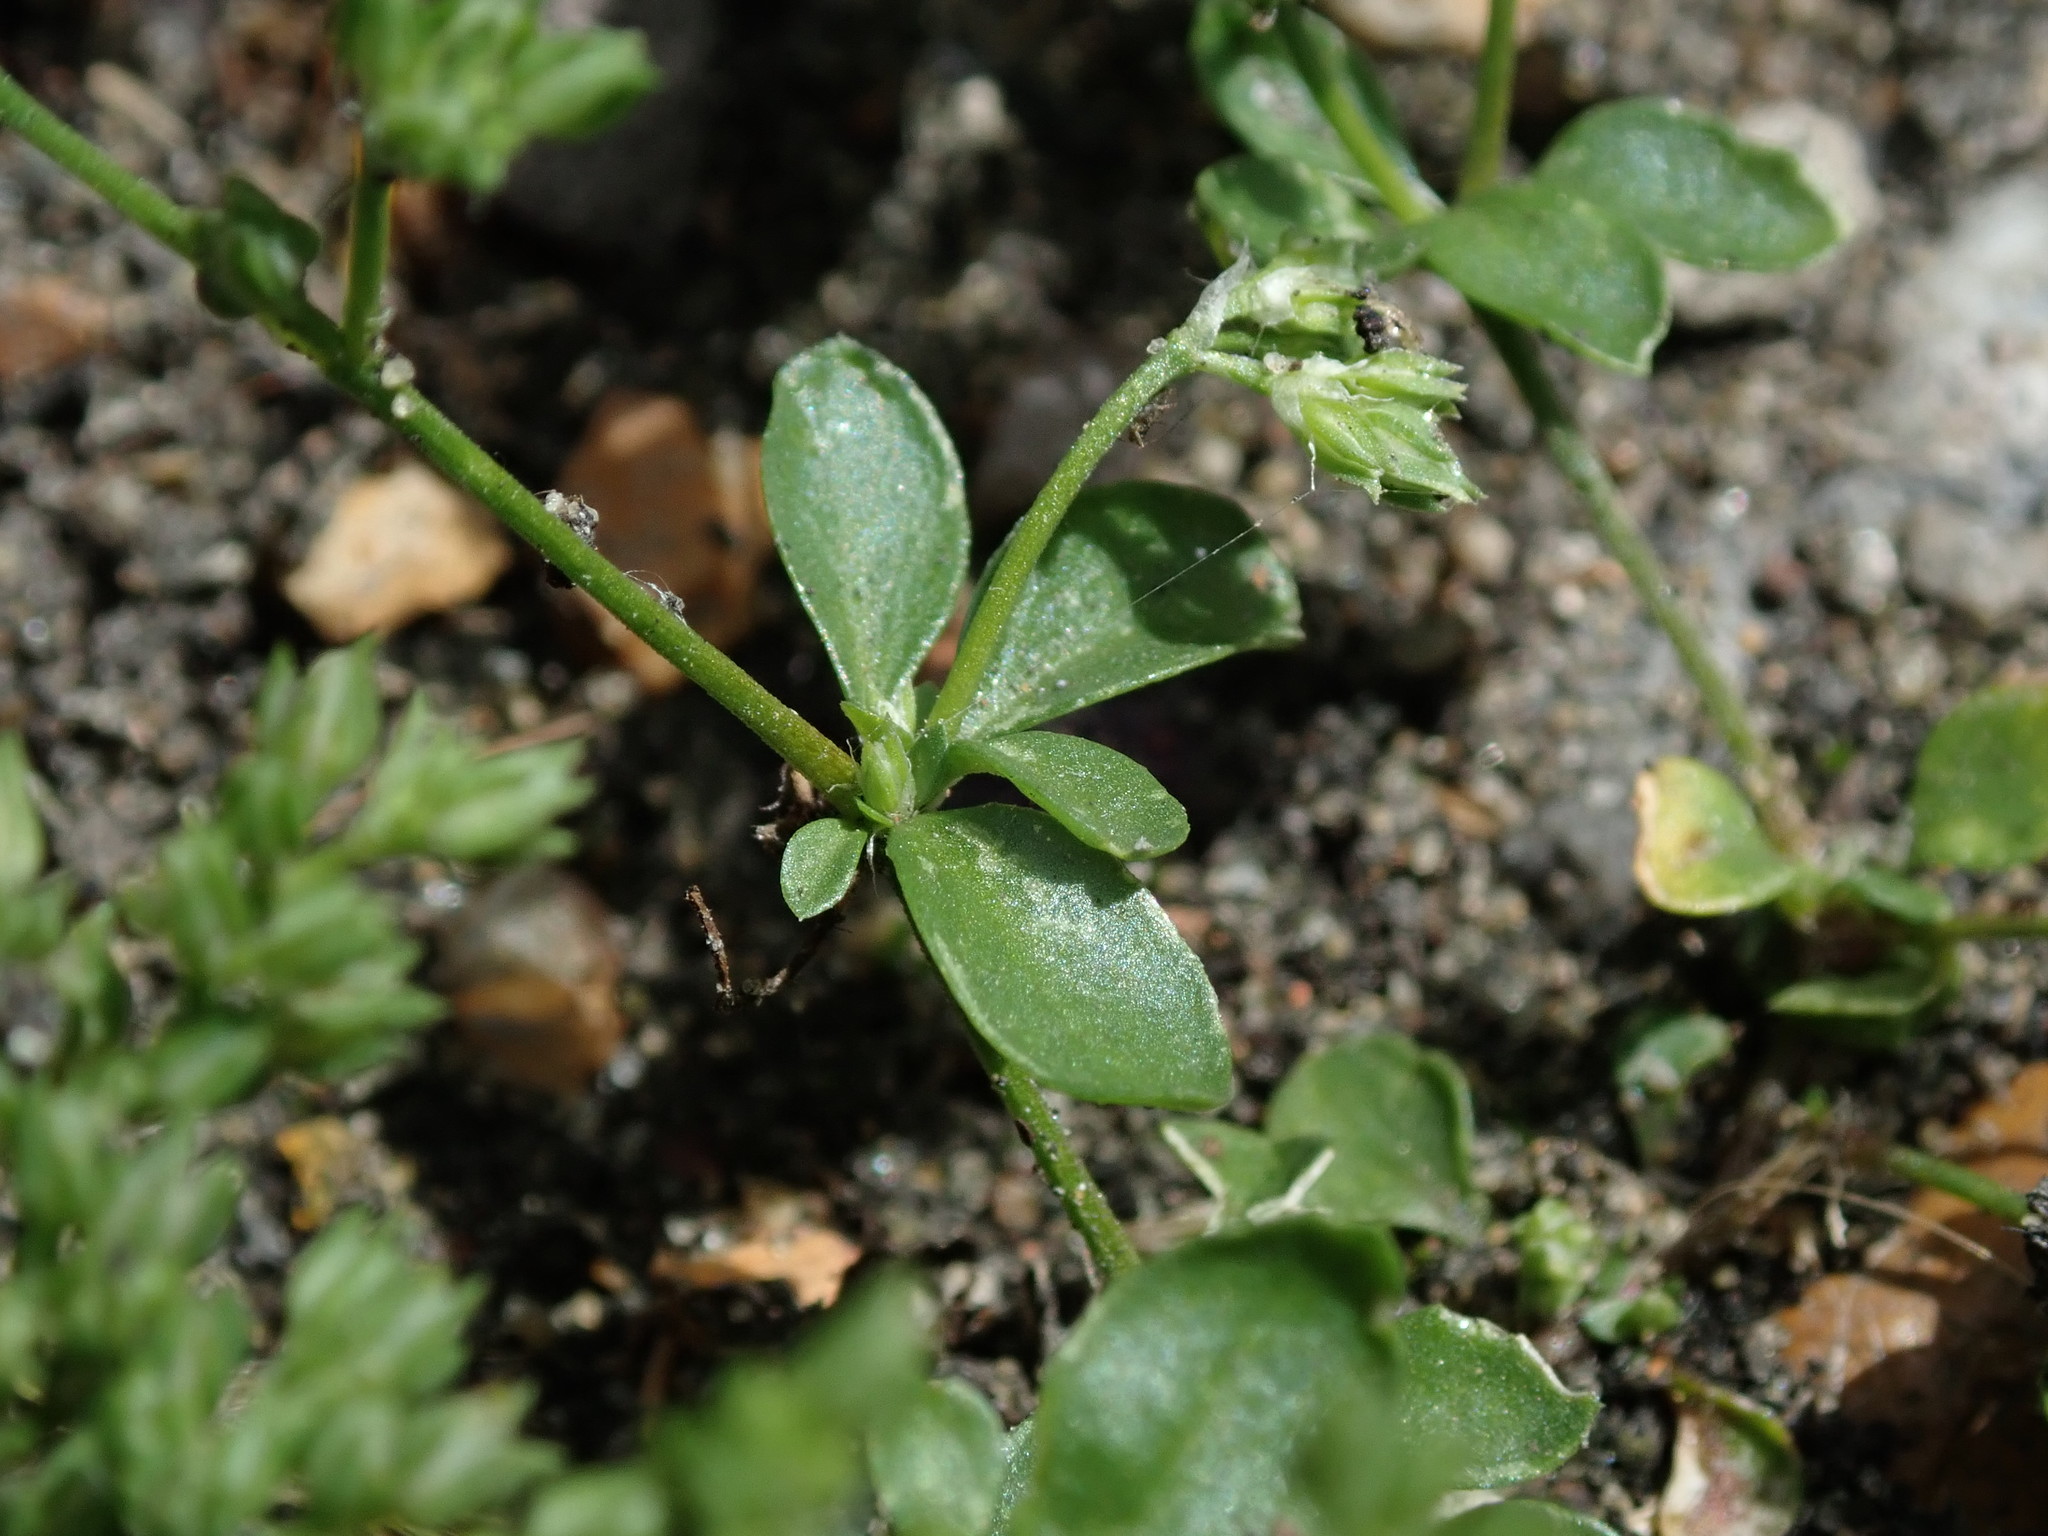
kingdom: Plantae
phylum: Tracheophyta
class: Magnoliopsida
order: Caryophyllales
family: Caryophyllaceae
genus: Polycarpon
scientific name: Polycarpon tetraphyllum
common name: Four-leaved all-seed
